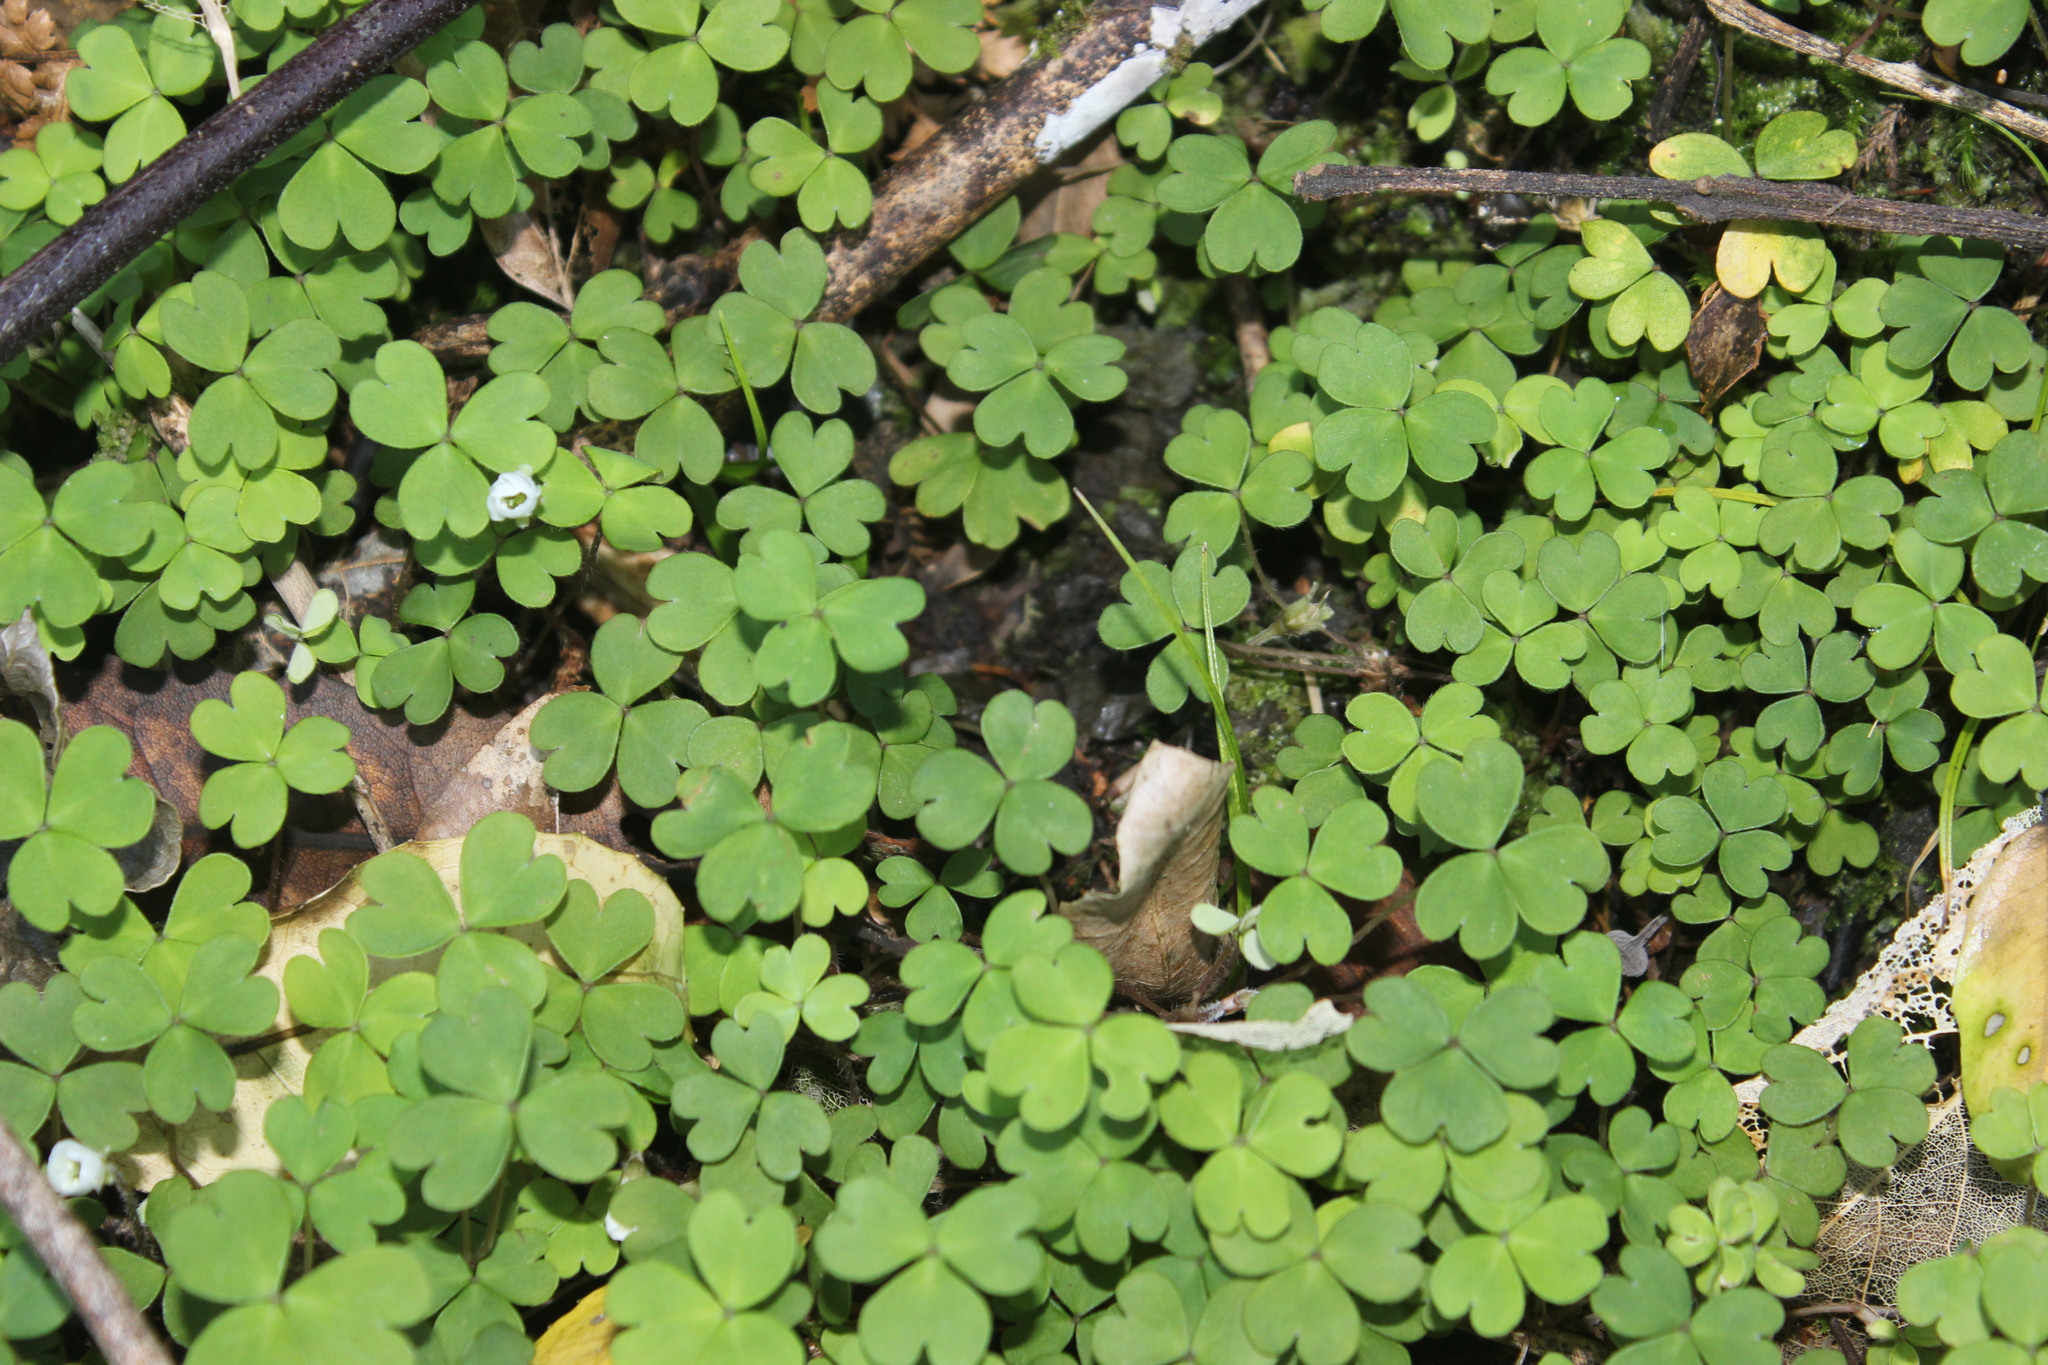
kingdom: Plantae
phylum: Tracheophyta
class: Magnoliopsida
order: Oxalidales
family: Oxalidaceae
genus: Oxalis
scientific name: Oxalis magellanica
